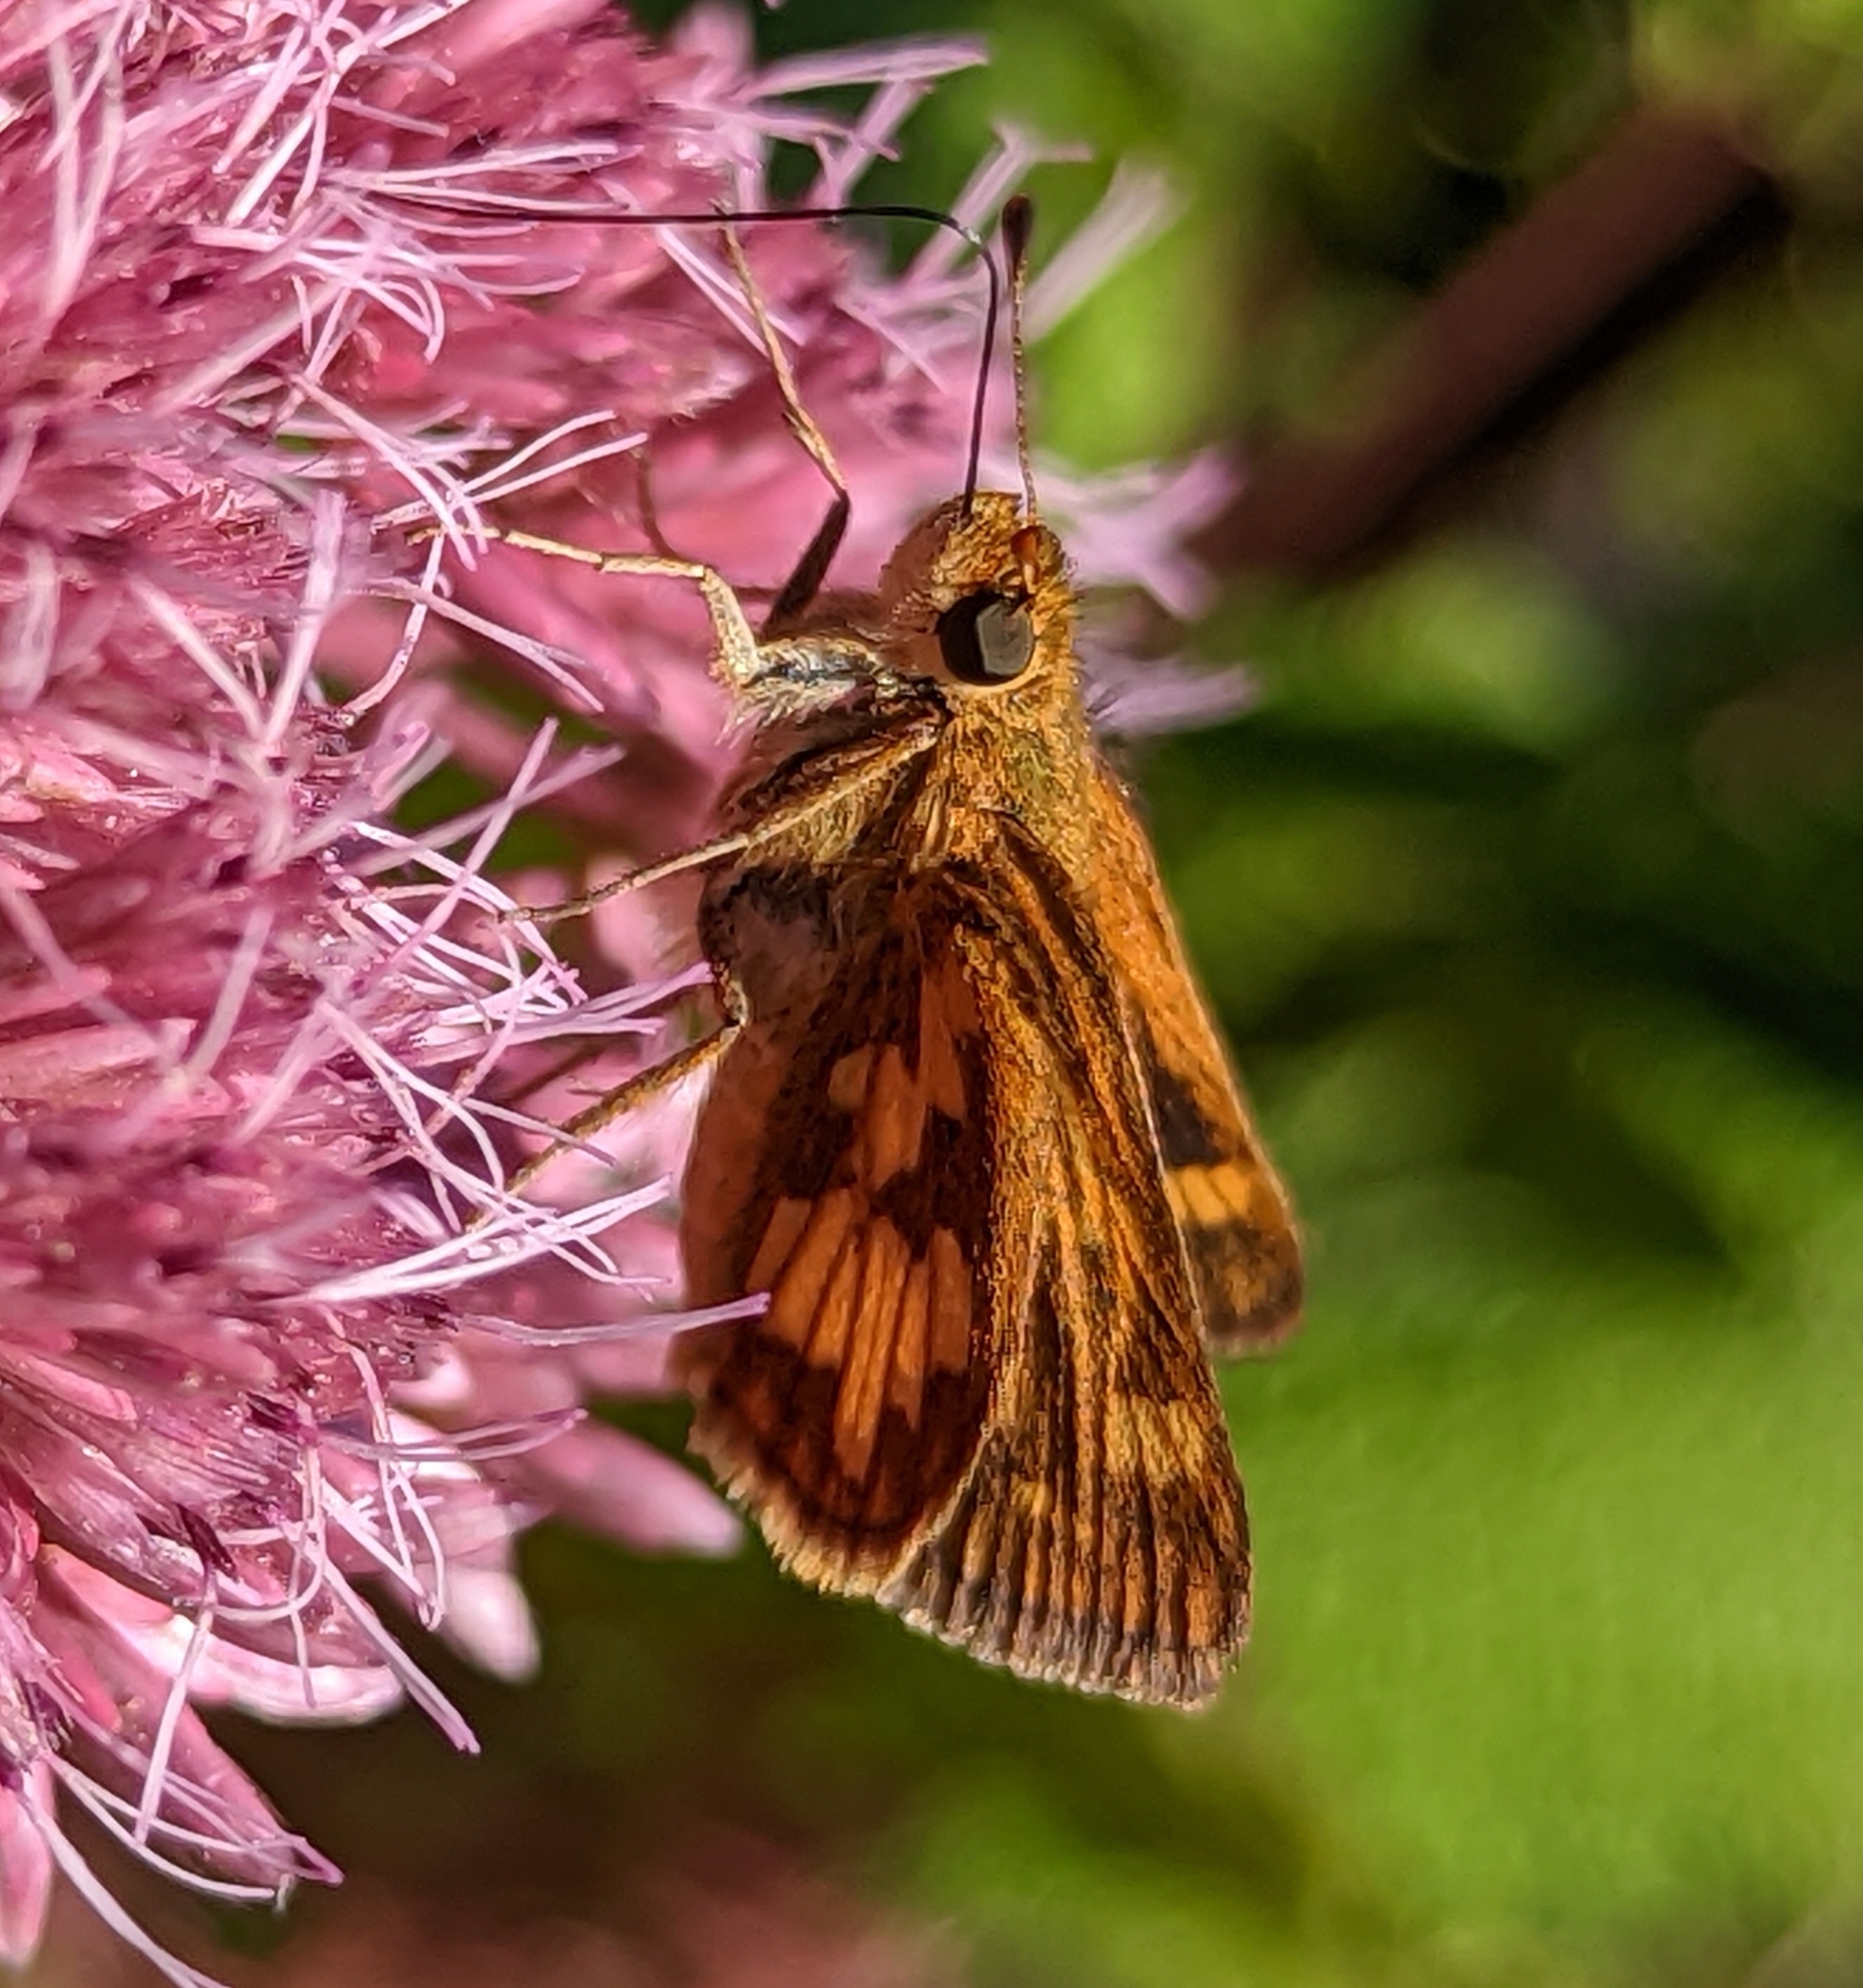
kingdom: Animalia
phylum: Arthropoda
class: Insecta
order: Lepidoptera
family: Hesperiidae
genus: Polites
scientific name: Polites coras
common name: Peck's skipper
